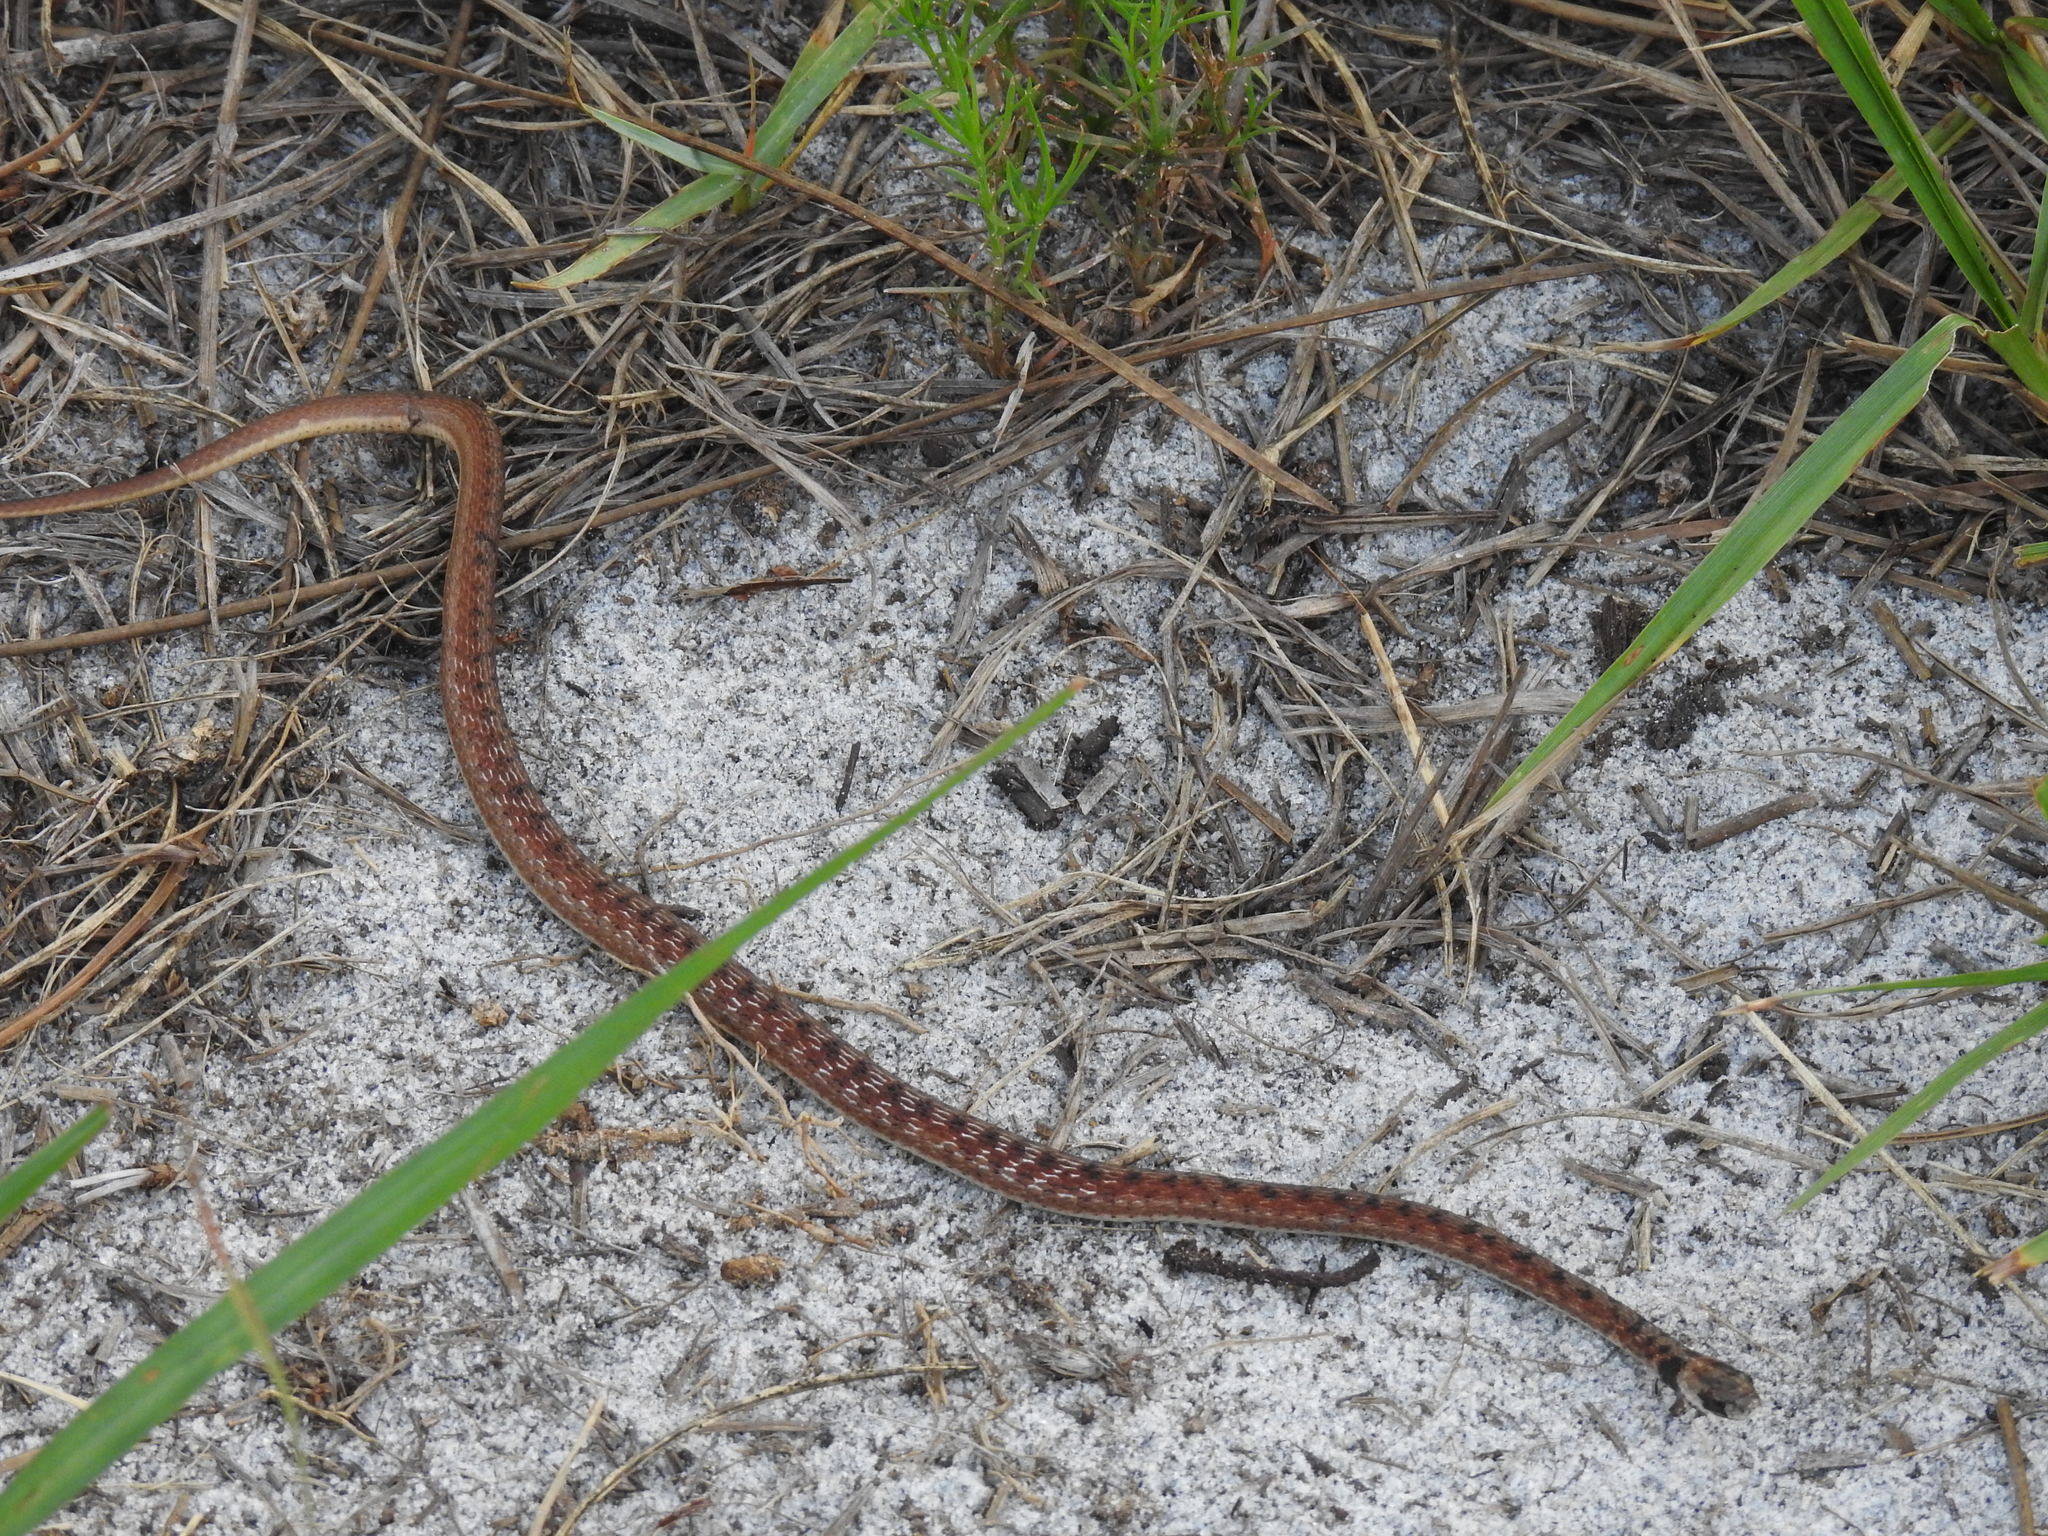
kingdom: Animalia
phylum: Chordata
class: Squamata
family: Colubridae
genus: Storeria
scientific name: Storeria victa
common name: Florida brown snake
